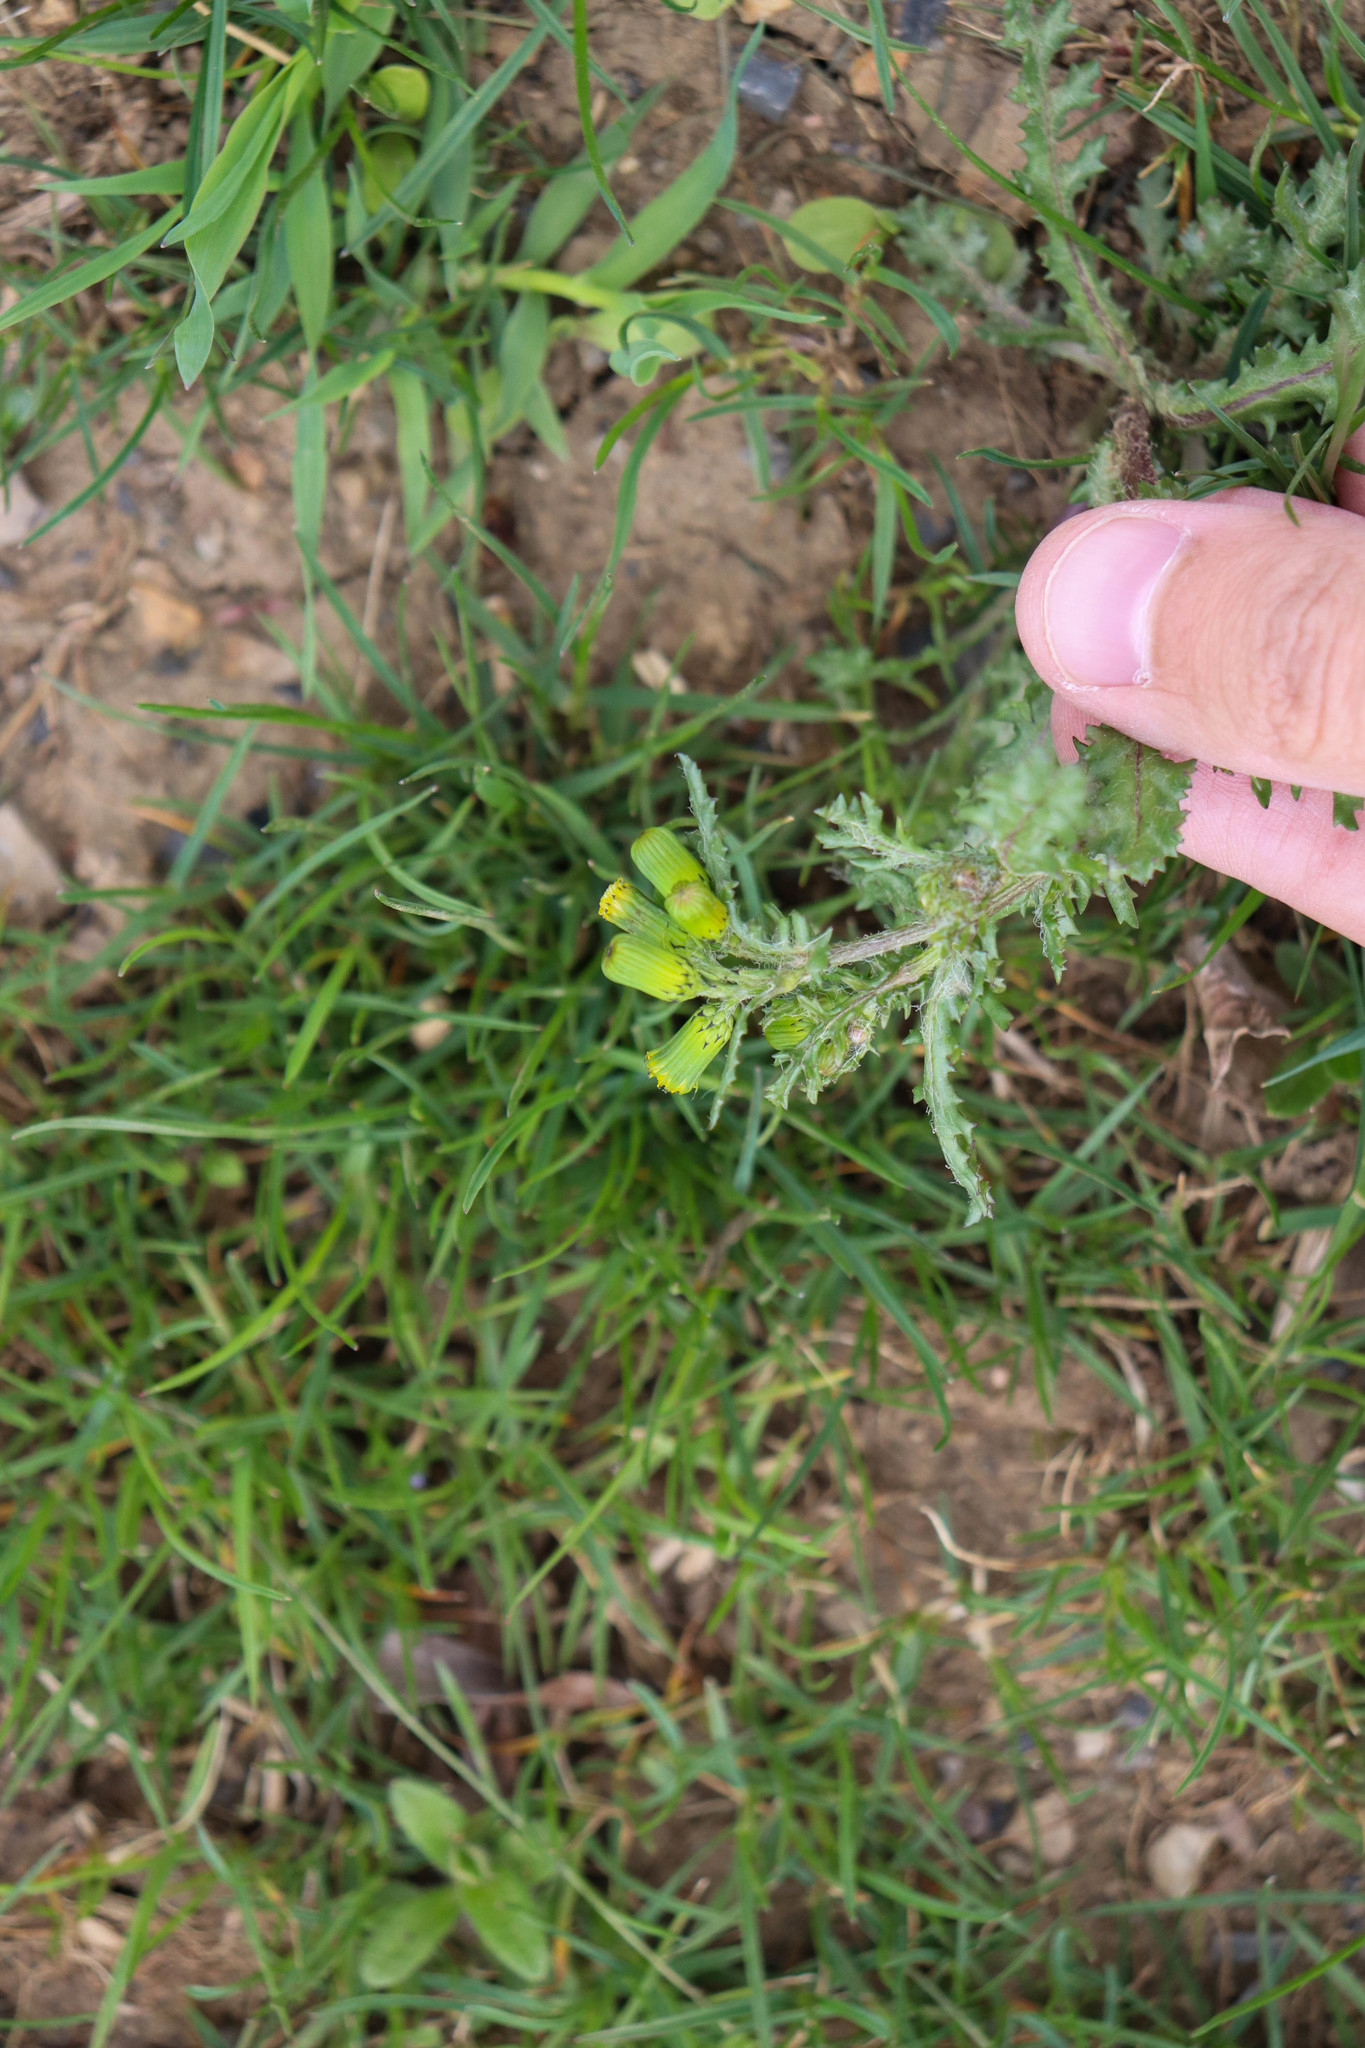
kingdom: Plantae
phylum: Tracheophyta
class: Magnoliopsida
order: Asterales
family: Asteraceae
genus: Senecio
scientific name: Senecio vulgaris
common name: Old-man-in-the-spring
